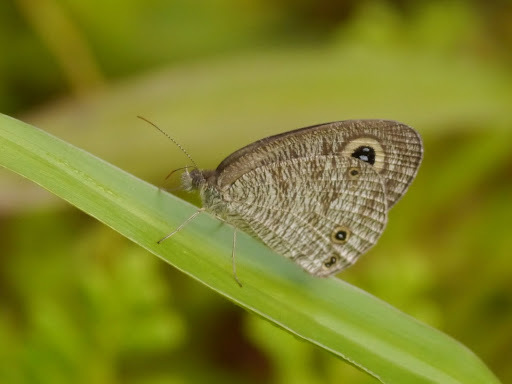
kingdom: Animalia
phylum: Arthropoda
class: Insecta
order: Lepidoptera
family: Nymphalidae
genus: Ypthima
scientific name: Ypthima doleta
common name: Common ringlet
